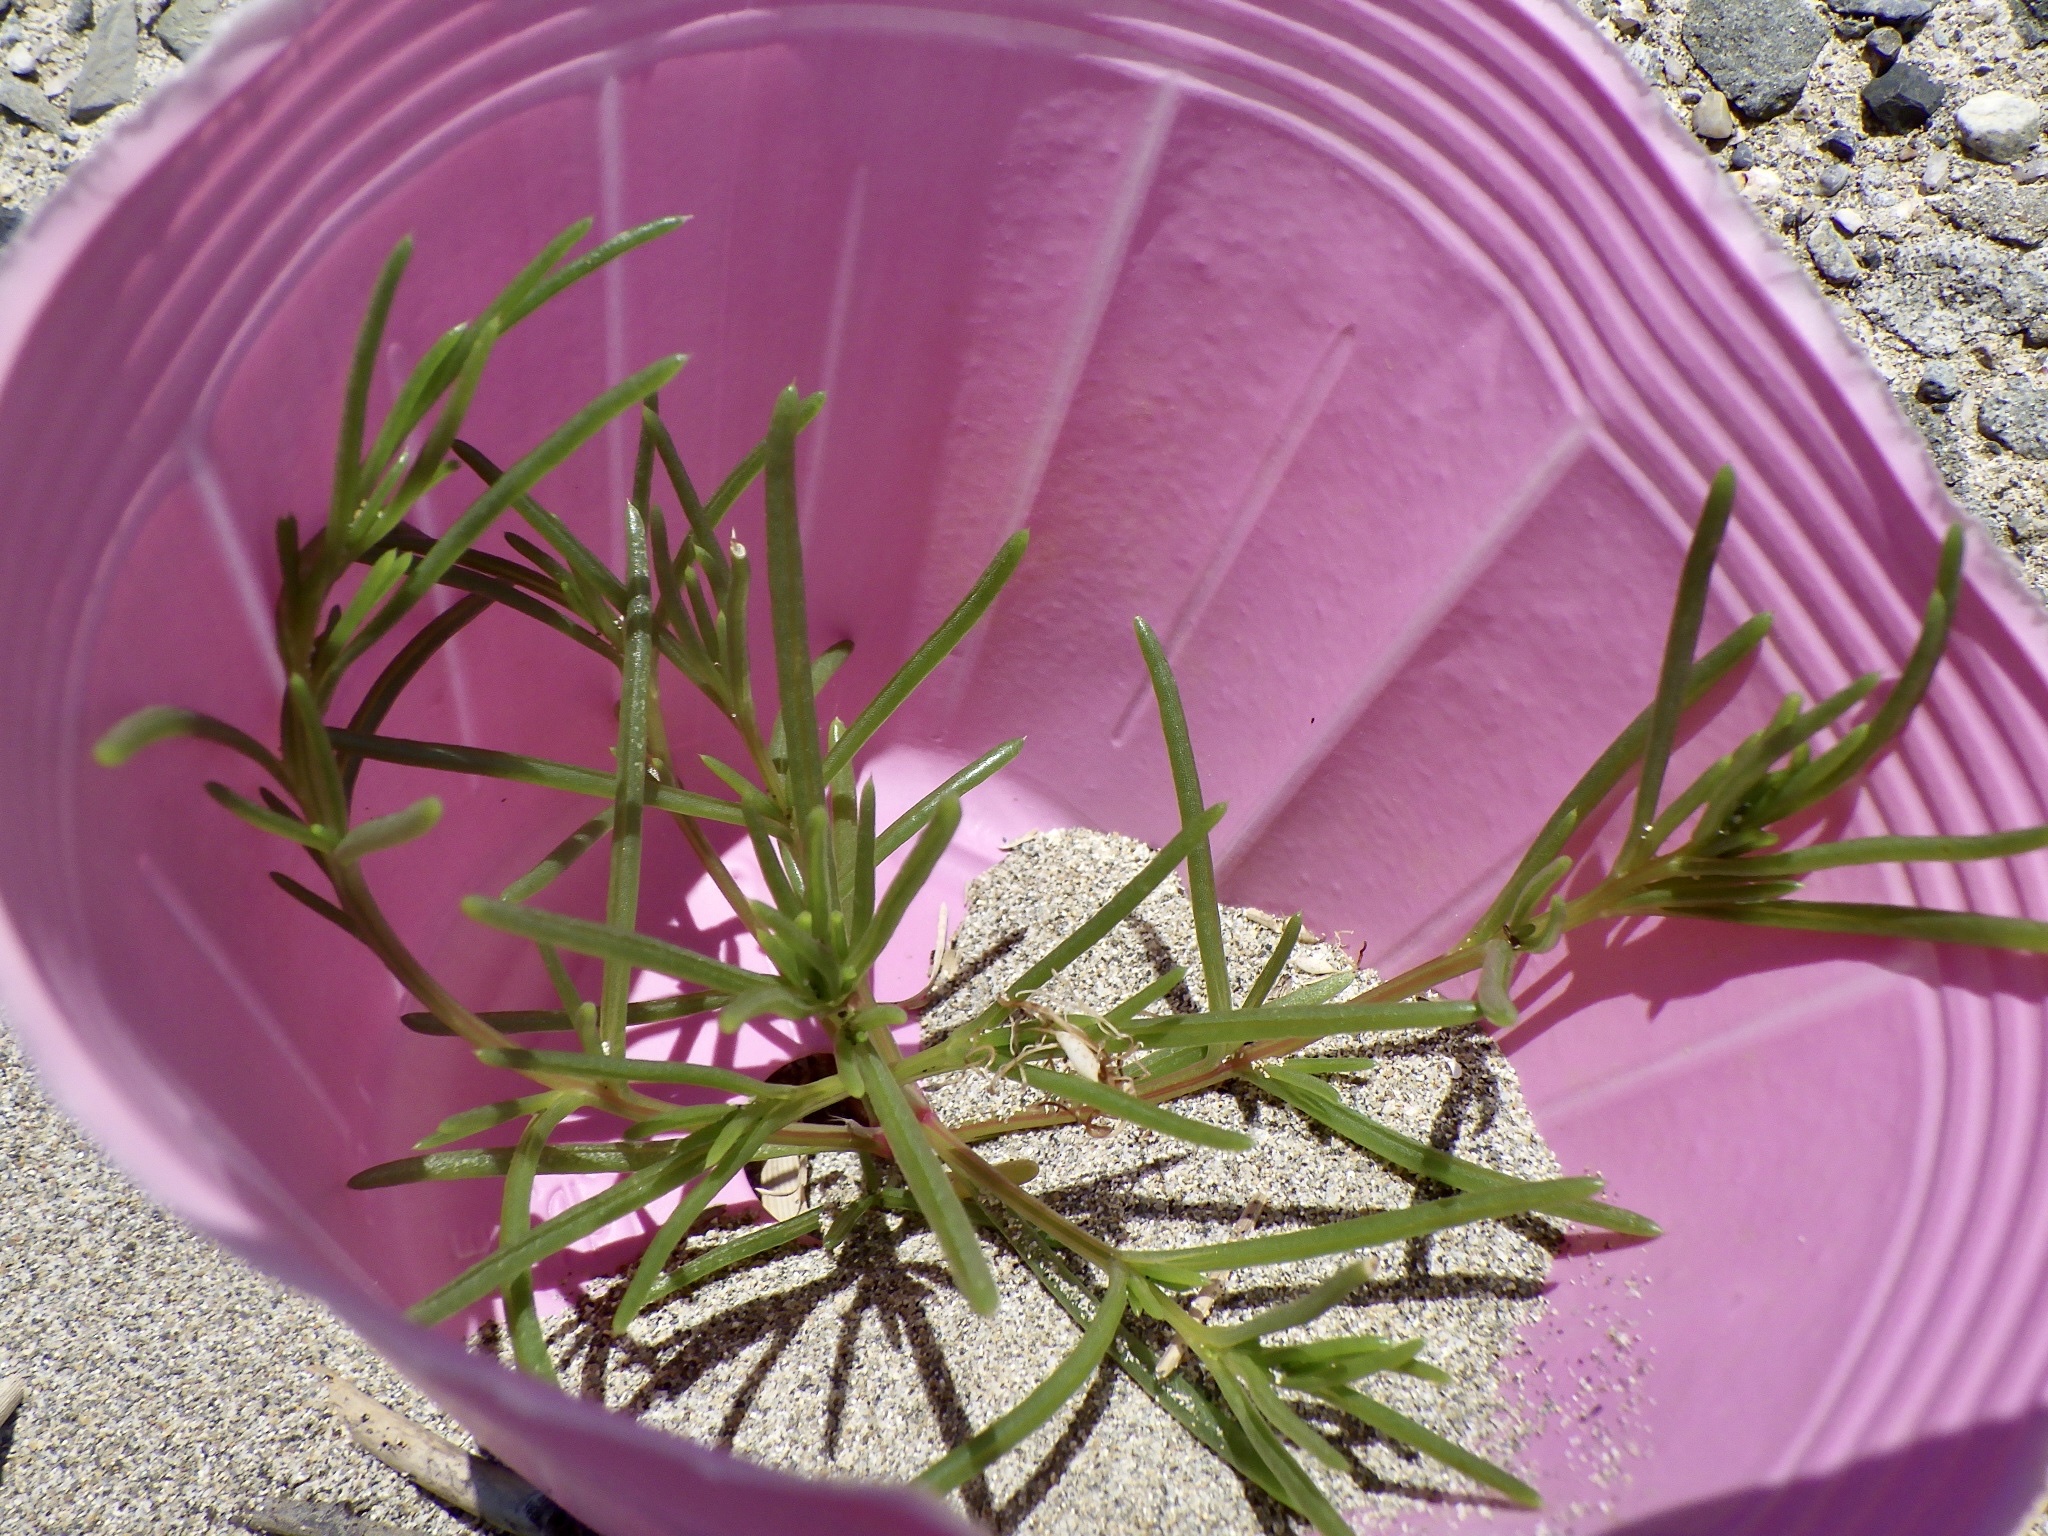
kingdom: Plantae
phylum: Tracheophyta
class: Magnoliopsida
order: Caryophyllales
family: Amaranthaceae
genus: Salsola
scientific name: Salsola komarovii
